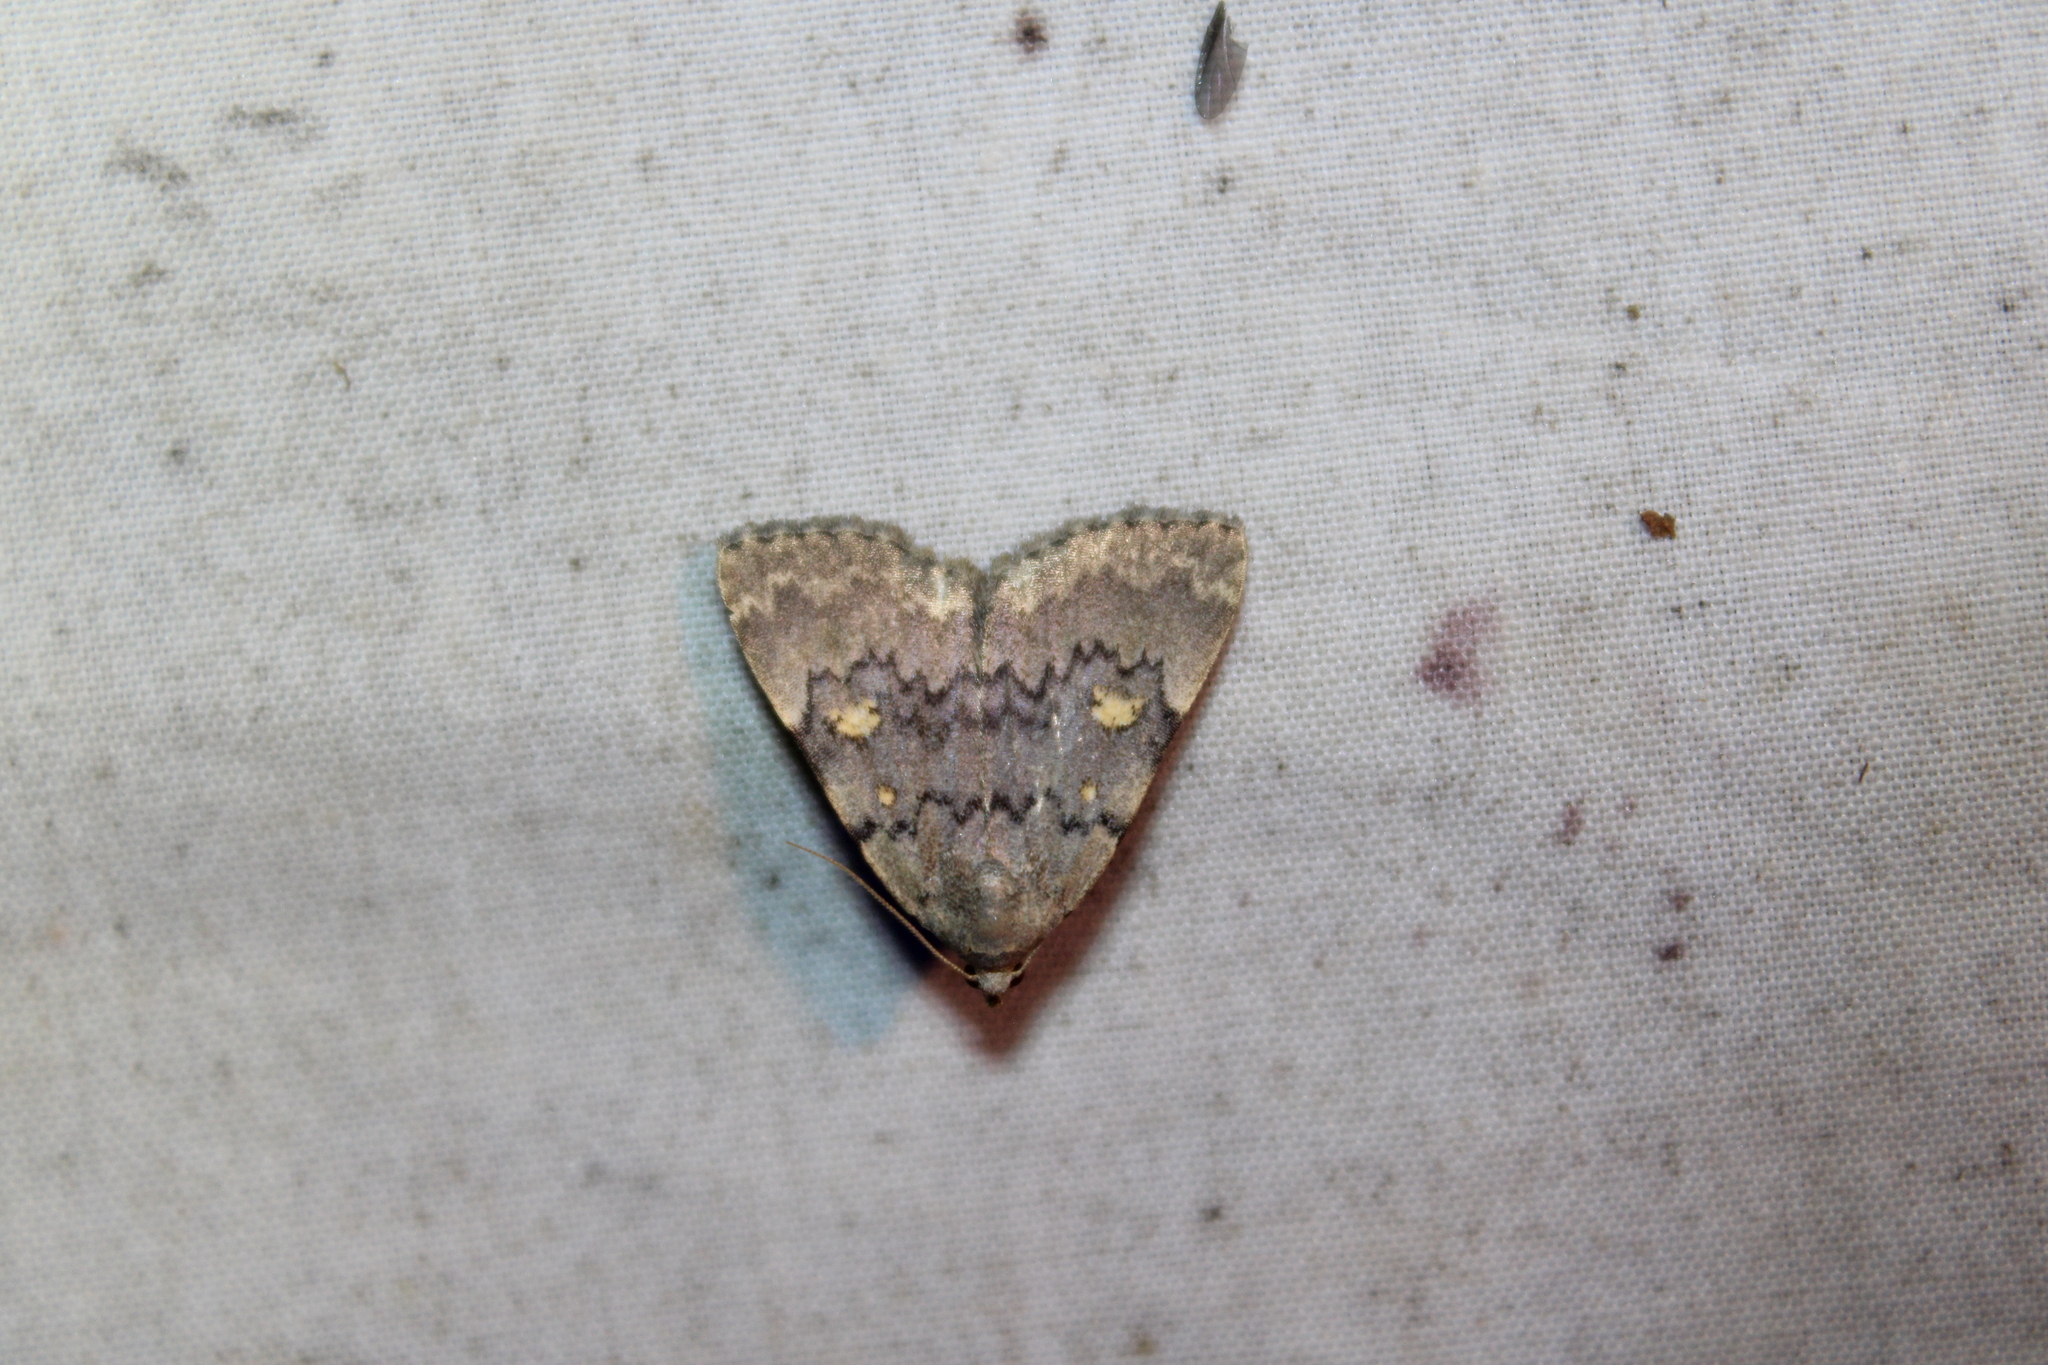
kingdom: Animalia
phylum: Arthropoda
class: Insecta
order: Lepidoptera
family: Erebidae
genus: Idia
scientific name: Idia aemula
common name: Common idia moth
